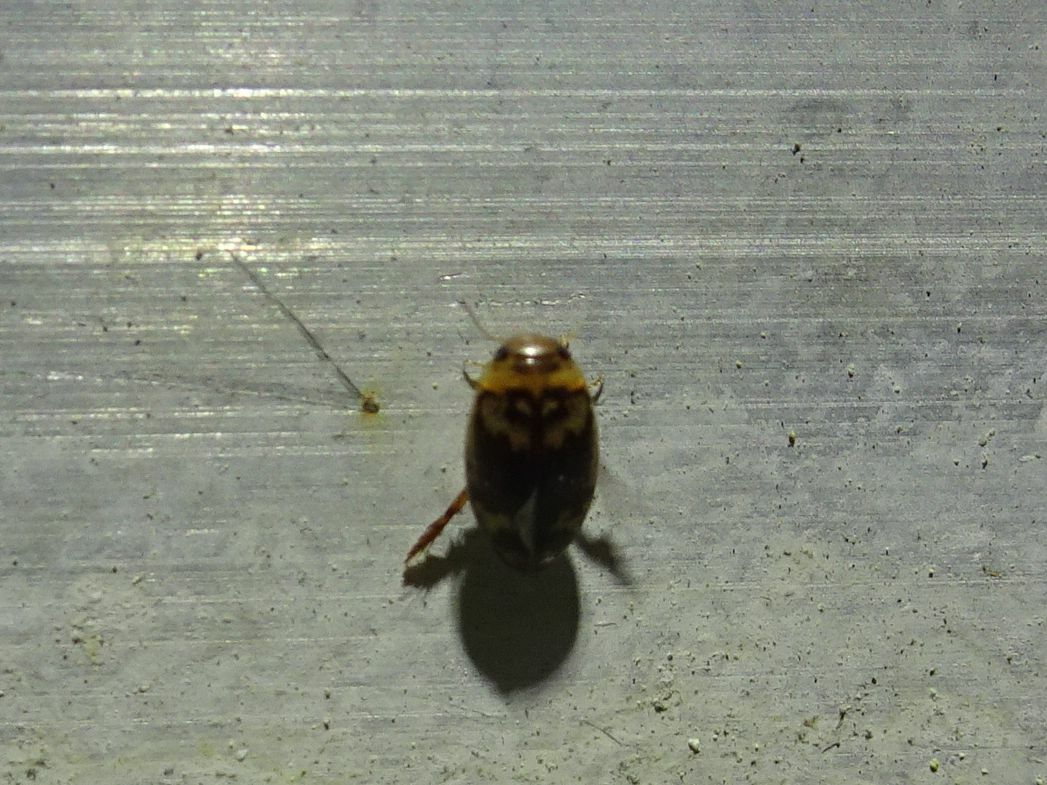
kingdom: Animalia
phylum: Arthropoda
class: Insecta
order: Coleoptera
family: Dytiscidae
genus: Laccophilus
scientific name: Laccophilus poecilus
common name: Sussex diving beetle
